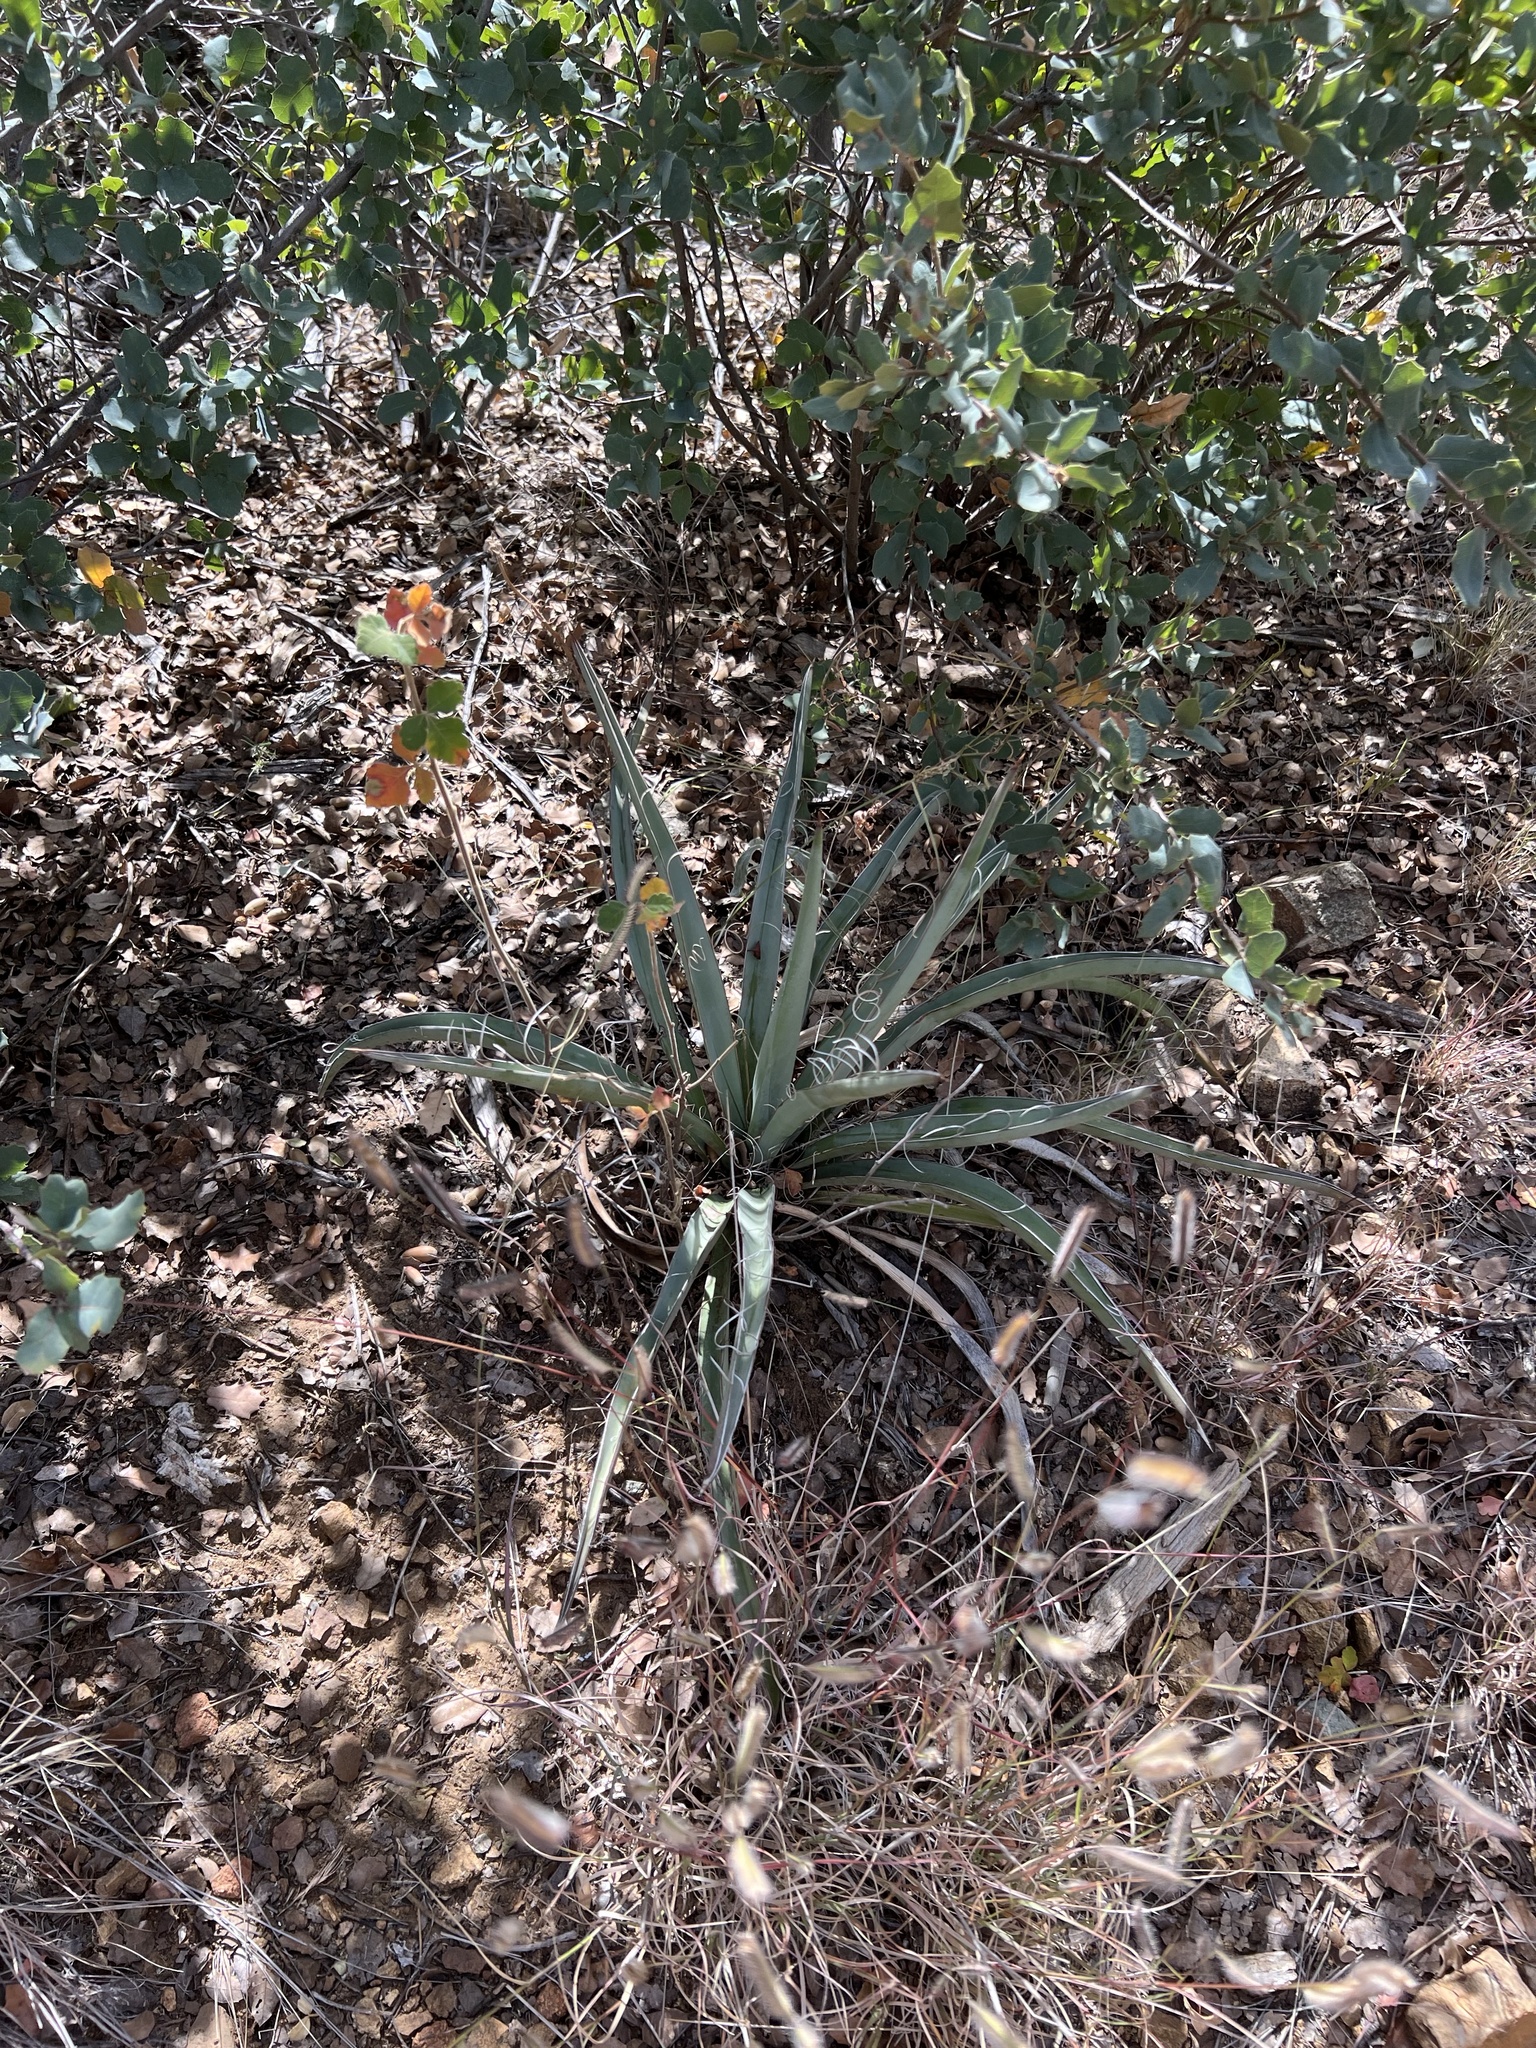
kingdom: Plantae
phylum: Tracheophyta
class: Liliopsida
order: Asparagales
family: Asparagaceae
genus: Yucca
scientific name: Yucca baccata
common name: Banana yucca
